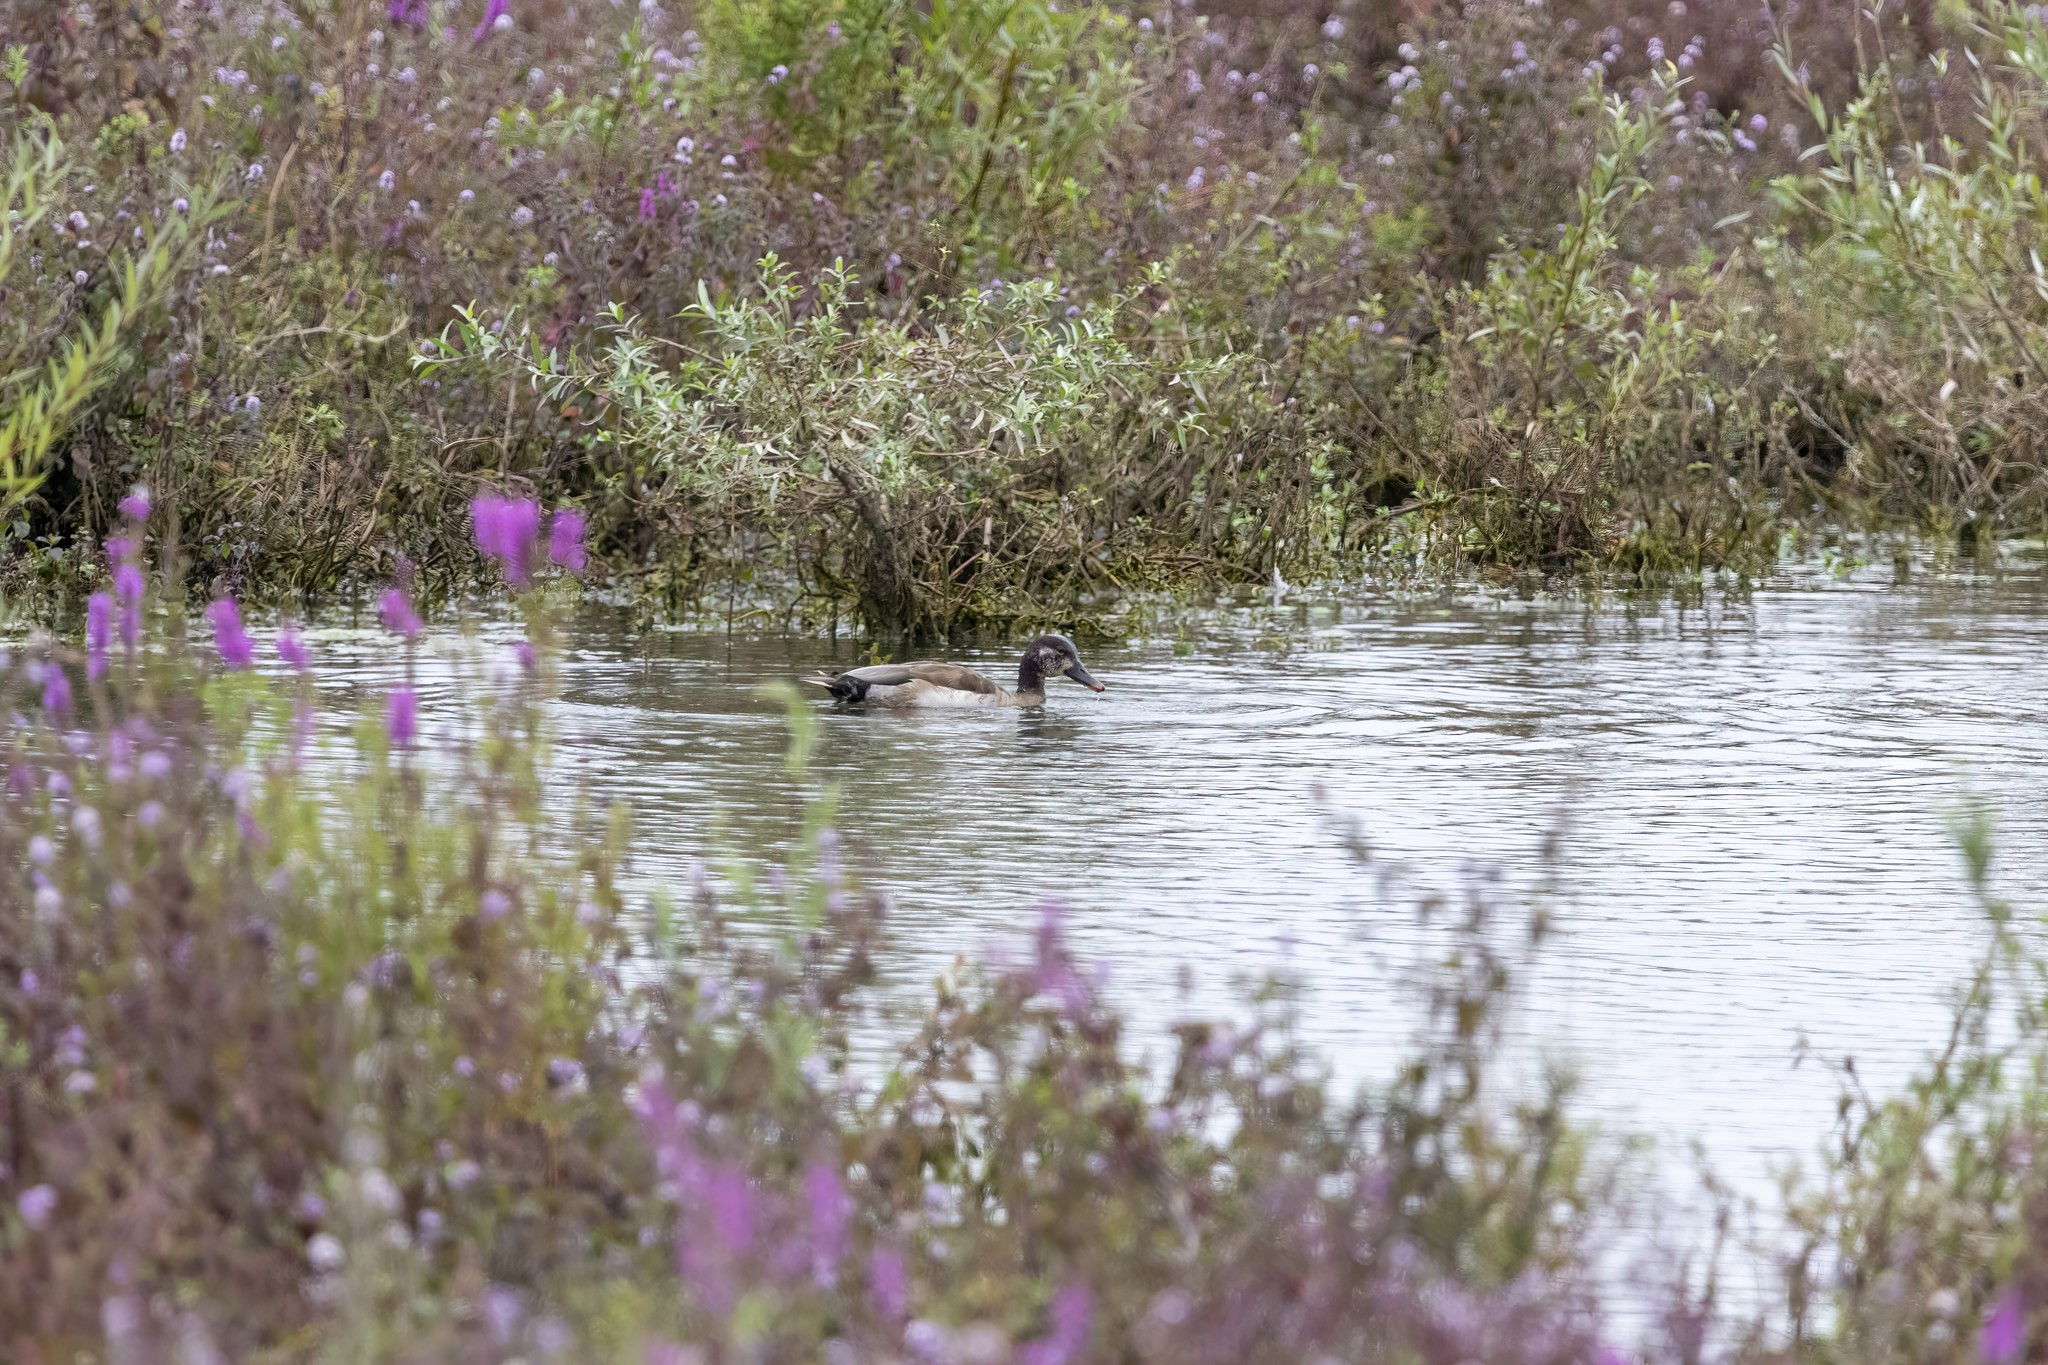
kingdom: Animalia
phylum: Chordata
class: Aves
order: Anseriformes
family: Anatidae
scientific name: Anatidae
